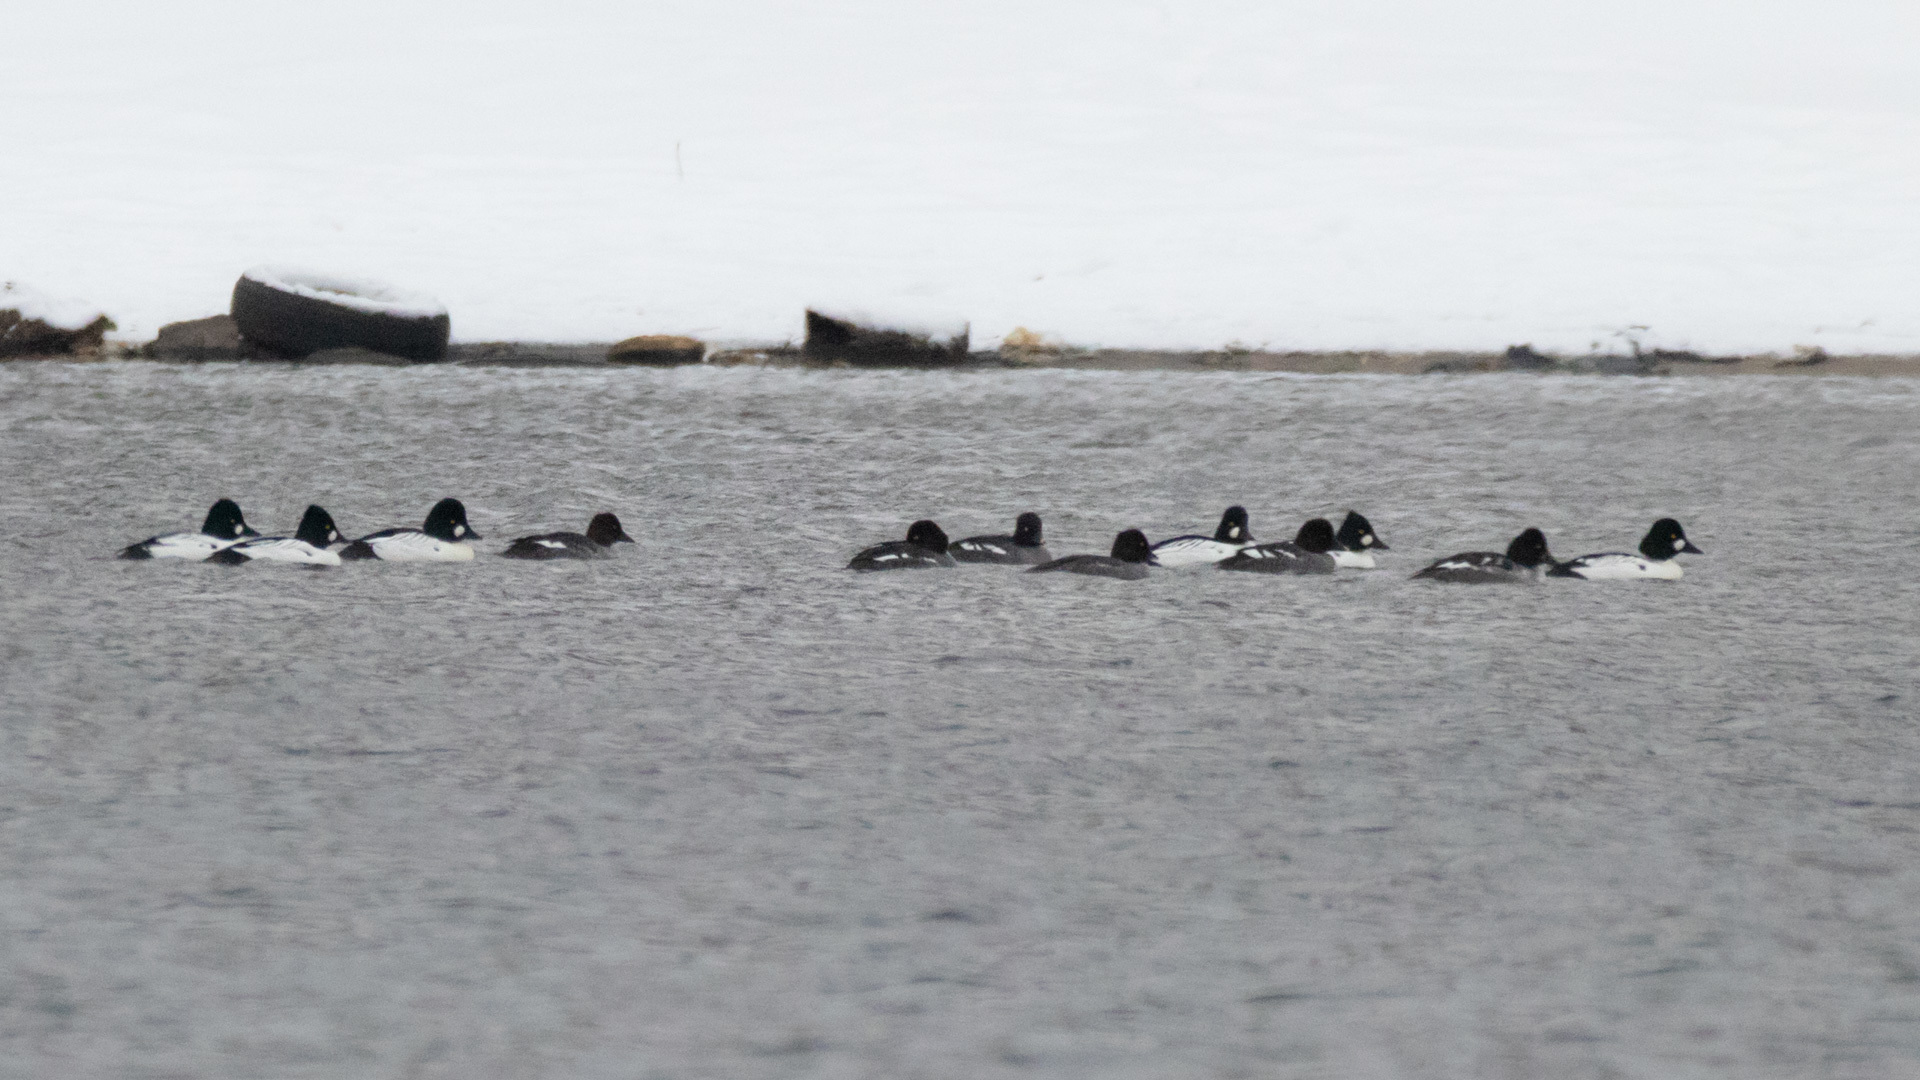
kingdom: Animalia
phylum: Chordata
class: Aves
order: Anseriformes
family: Anatidae
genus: Bucephala
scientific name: Bucephala clangula
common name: Common goldeneye
